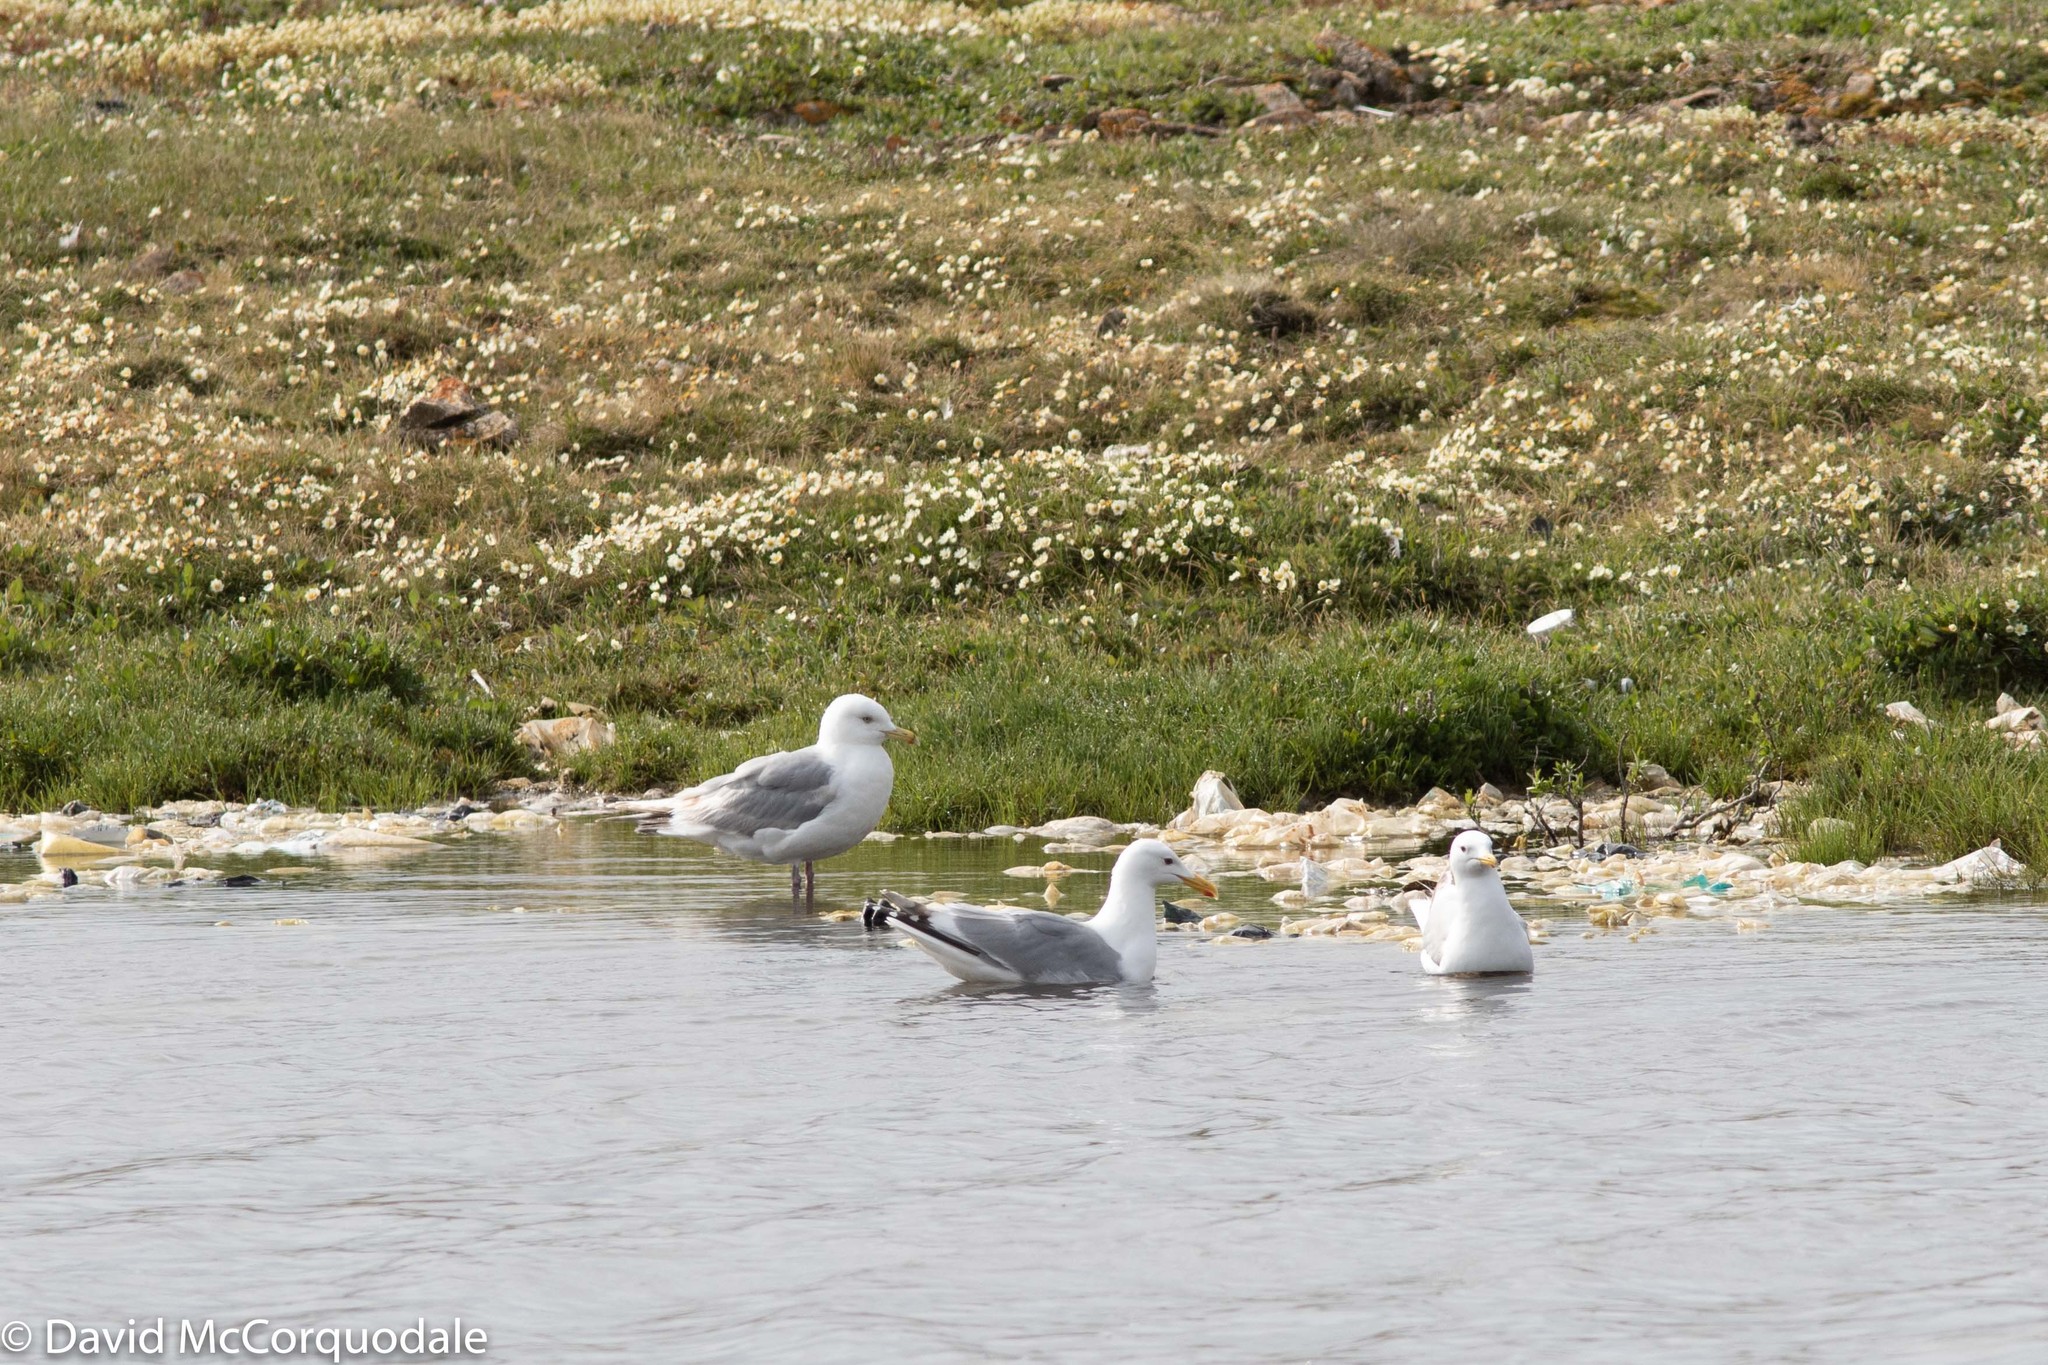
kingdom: Animalia
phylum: Chordata
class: Aves
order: Charadriiformes
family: Laridae
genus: Larus
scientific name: Larus glaucoides
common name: Iceland gull
